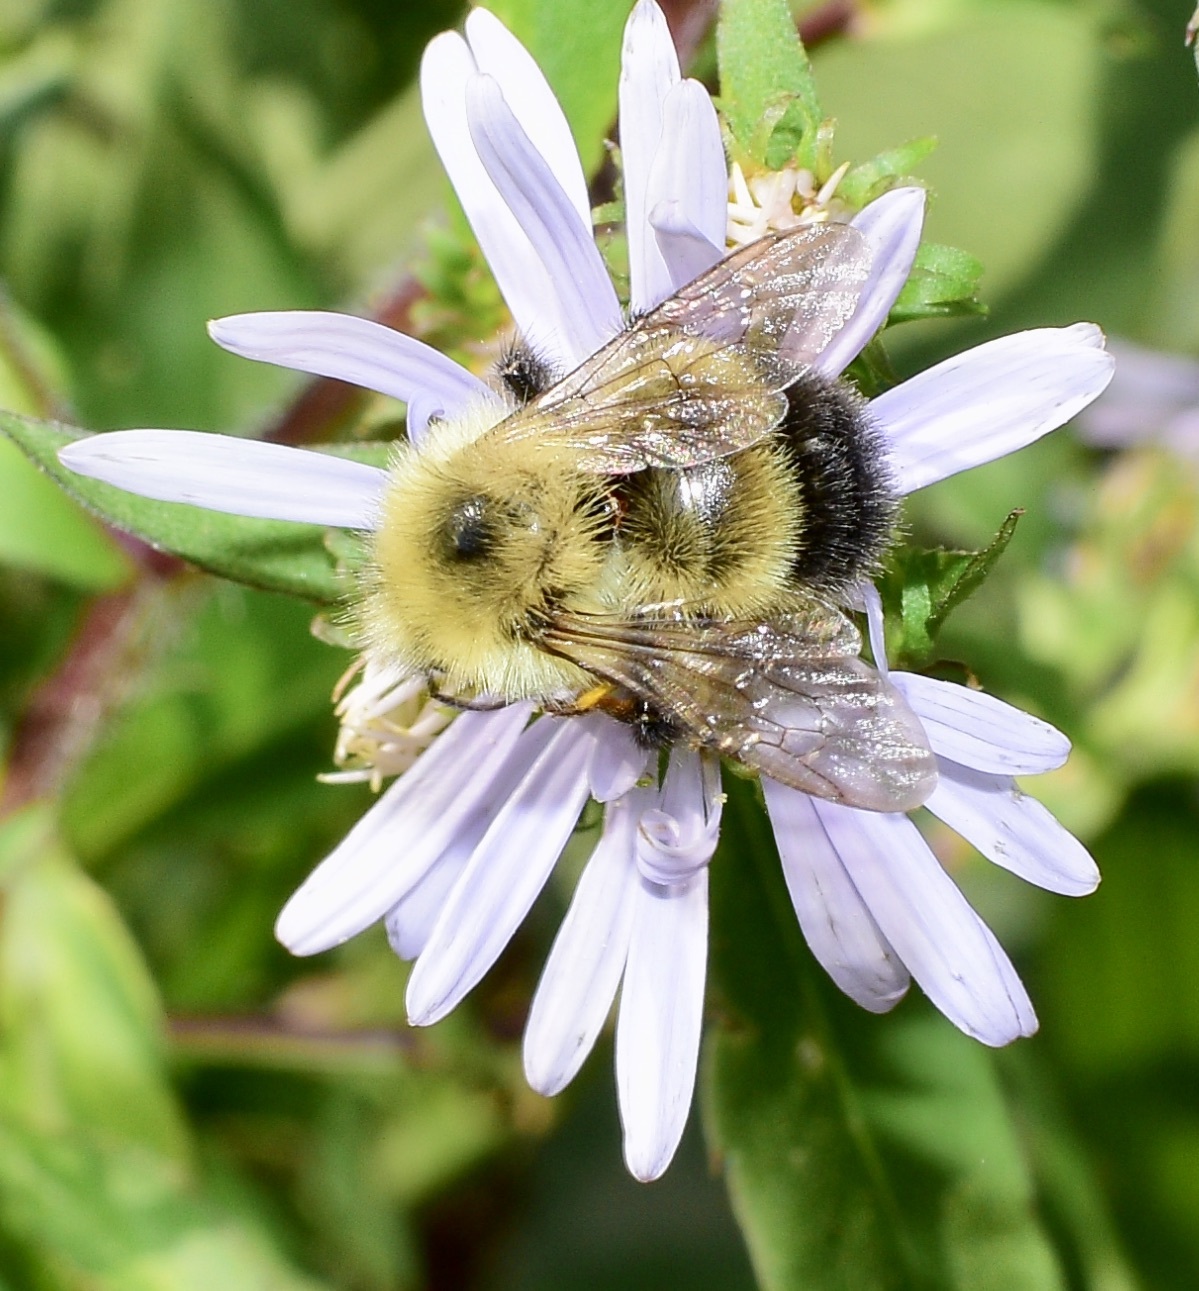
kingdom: Animalia
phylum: Arthropoda
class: Insecta
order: Hymenoptera
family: Apidae
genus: Pyrobombus
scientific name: Pyrobombus
